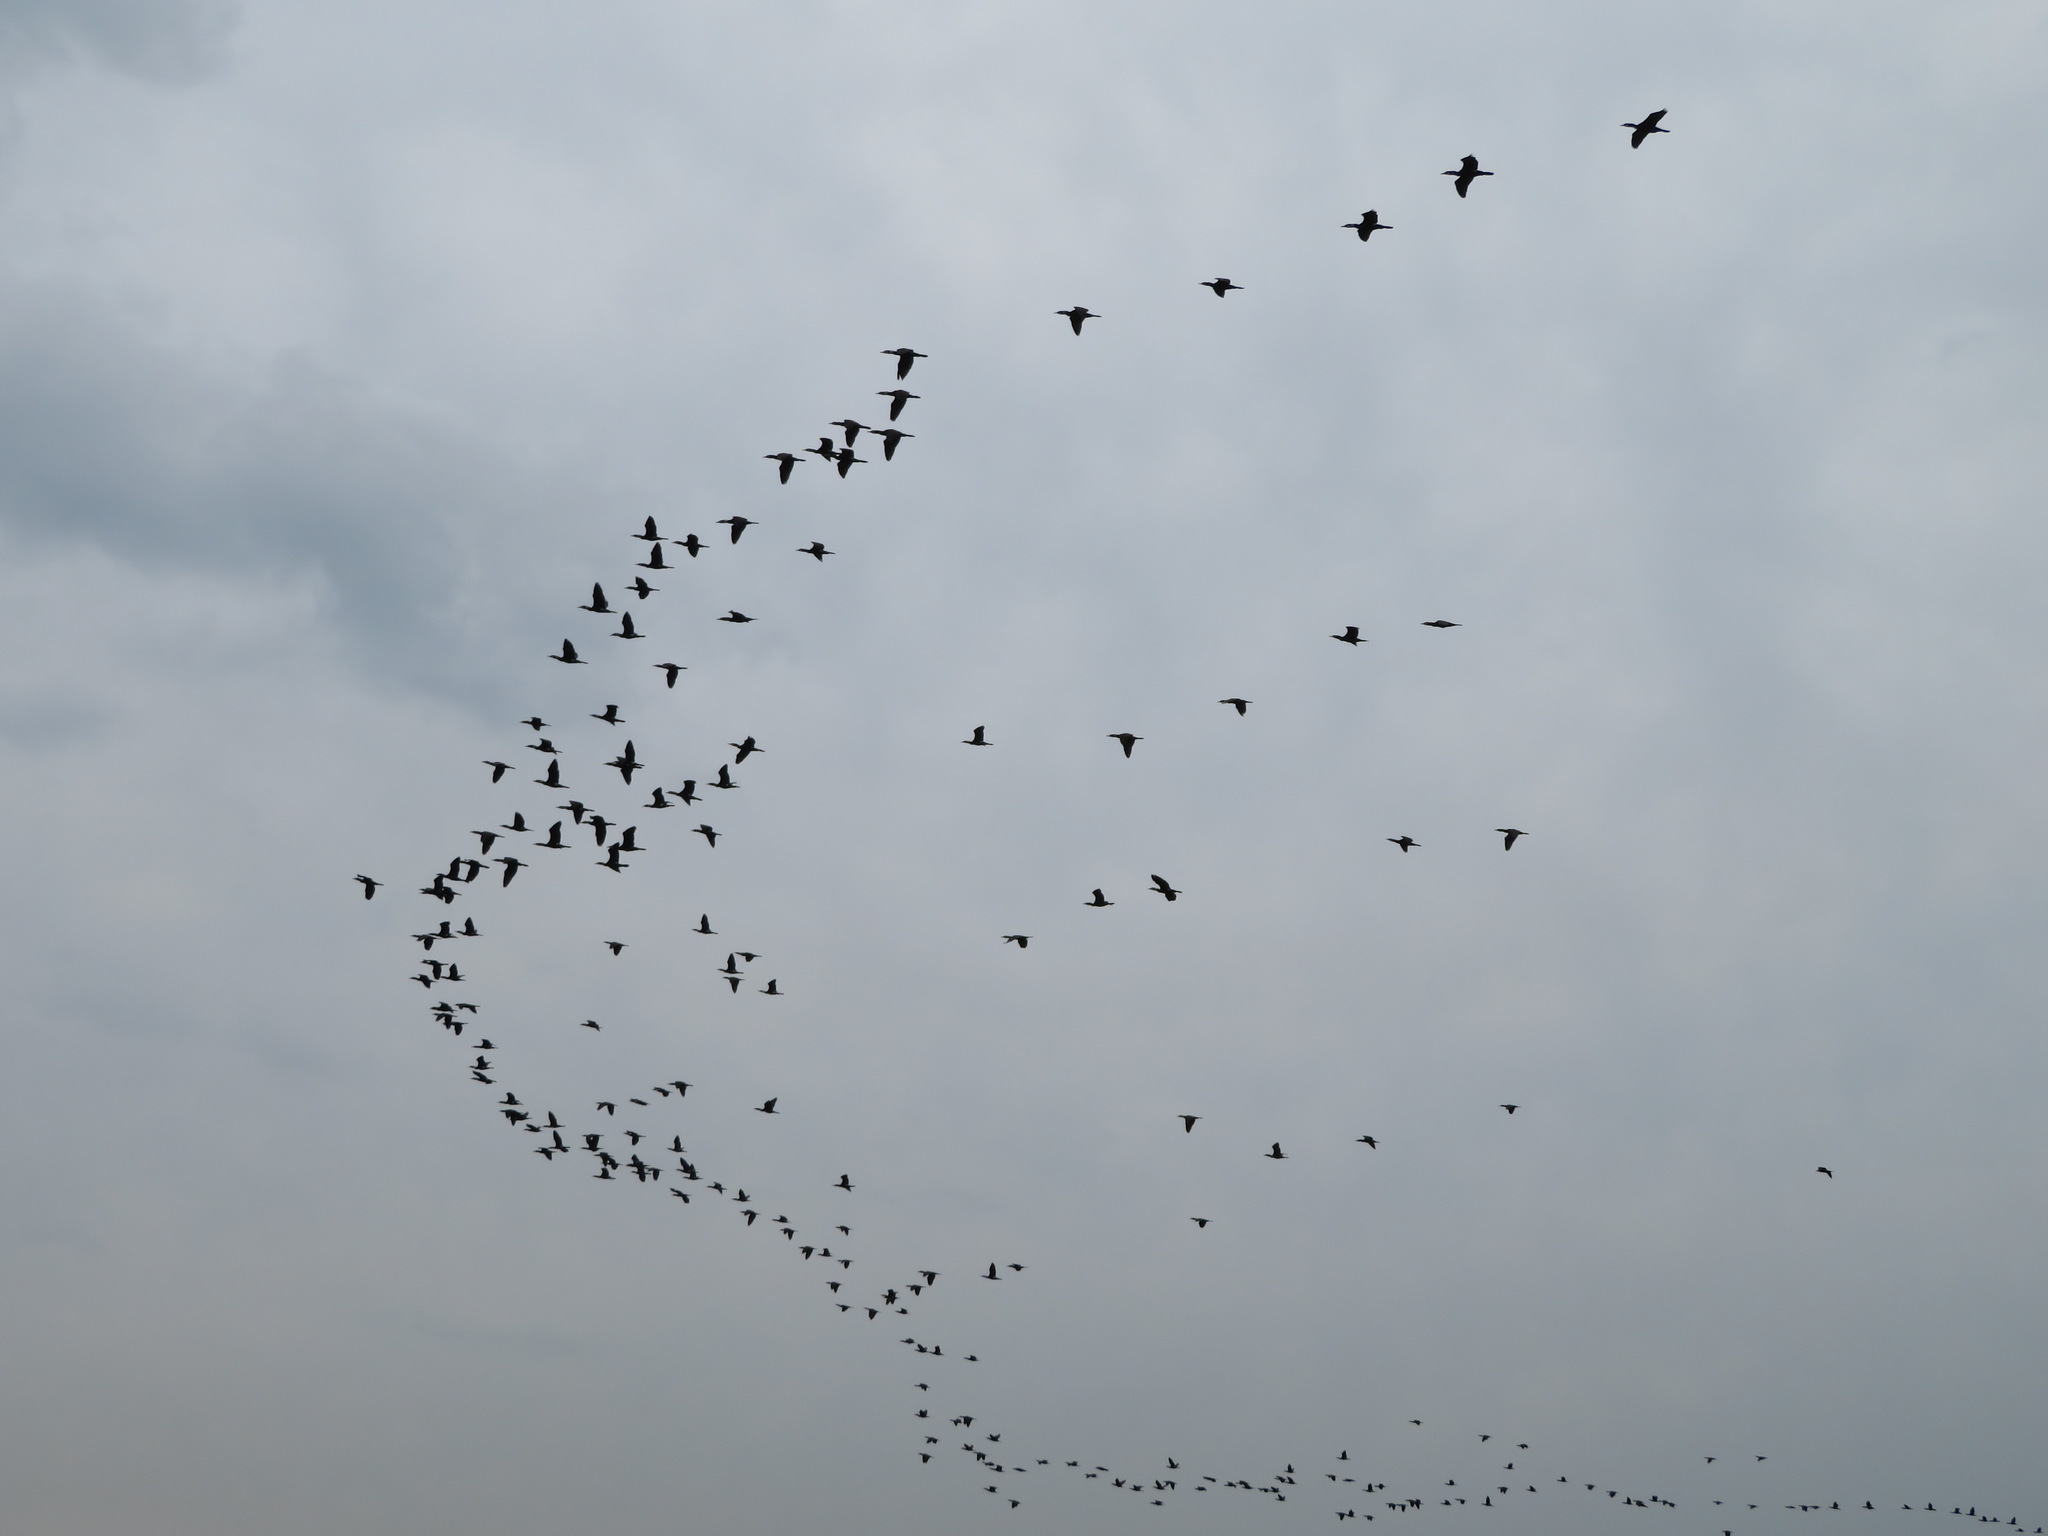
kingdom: Animalia
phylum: Chordata
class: Aves
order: Suliformes
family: Phalacrocoracidae
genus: Phalacrocorax
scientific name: Phalacrocorax carbo
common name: Great cormorant
